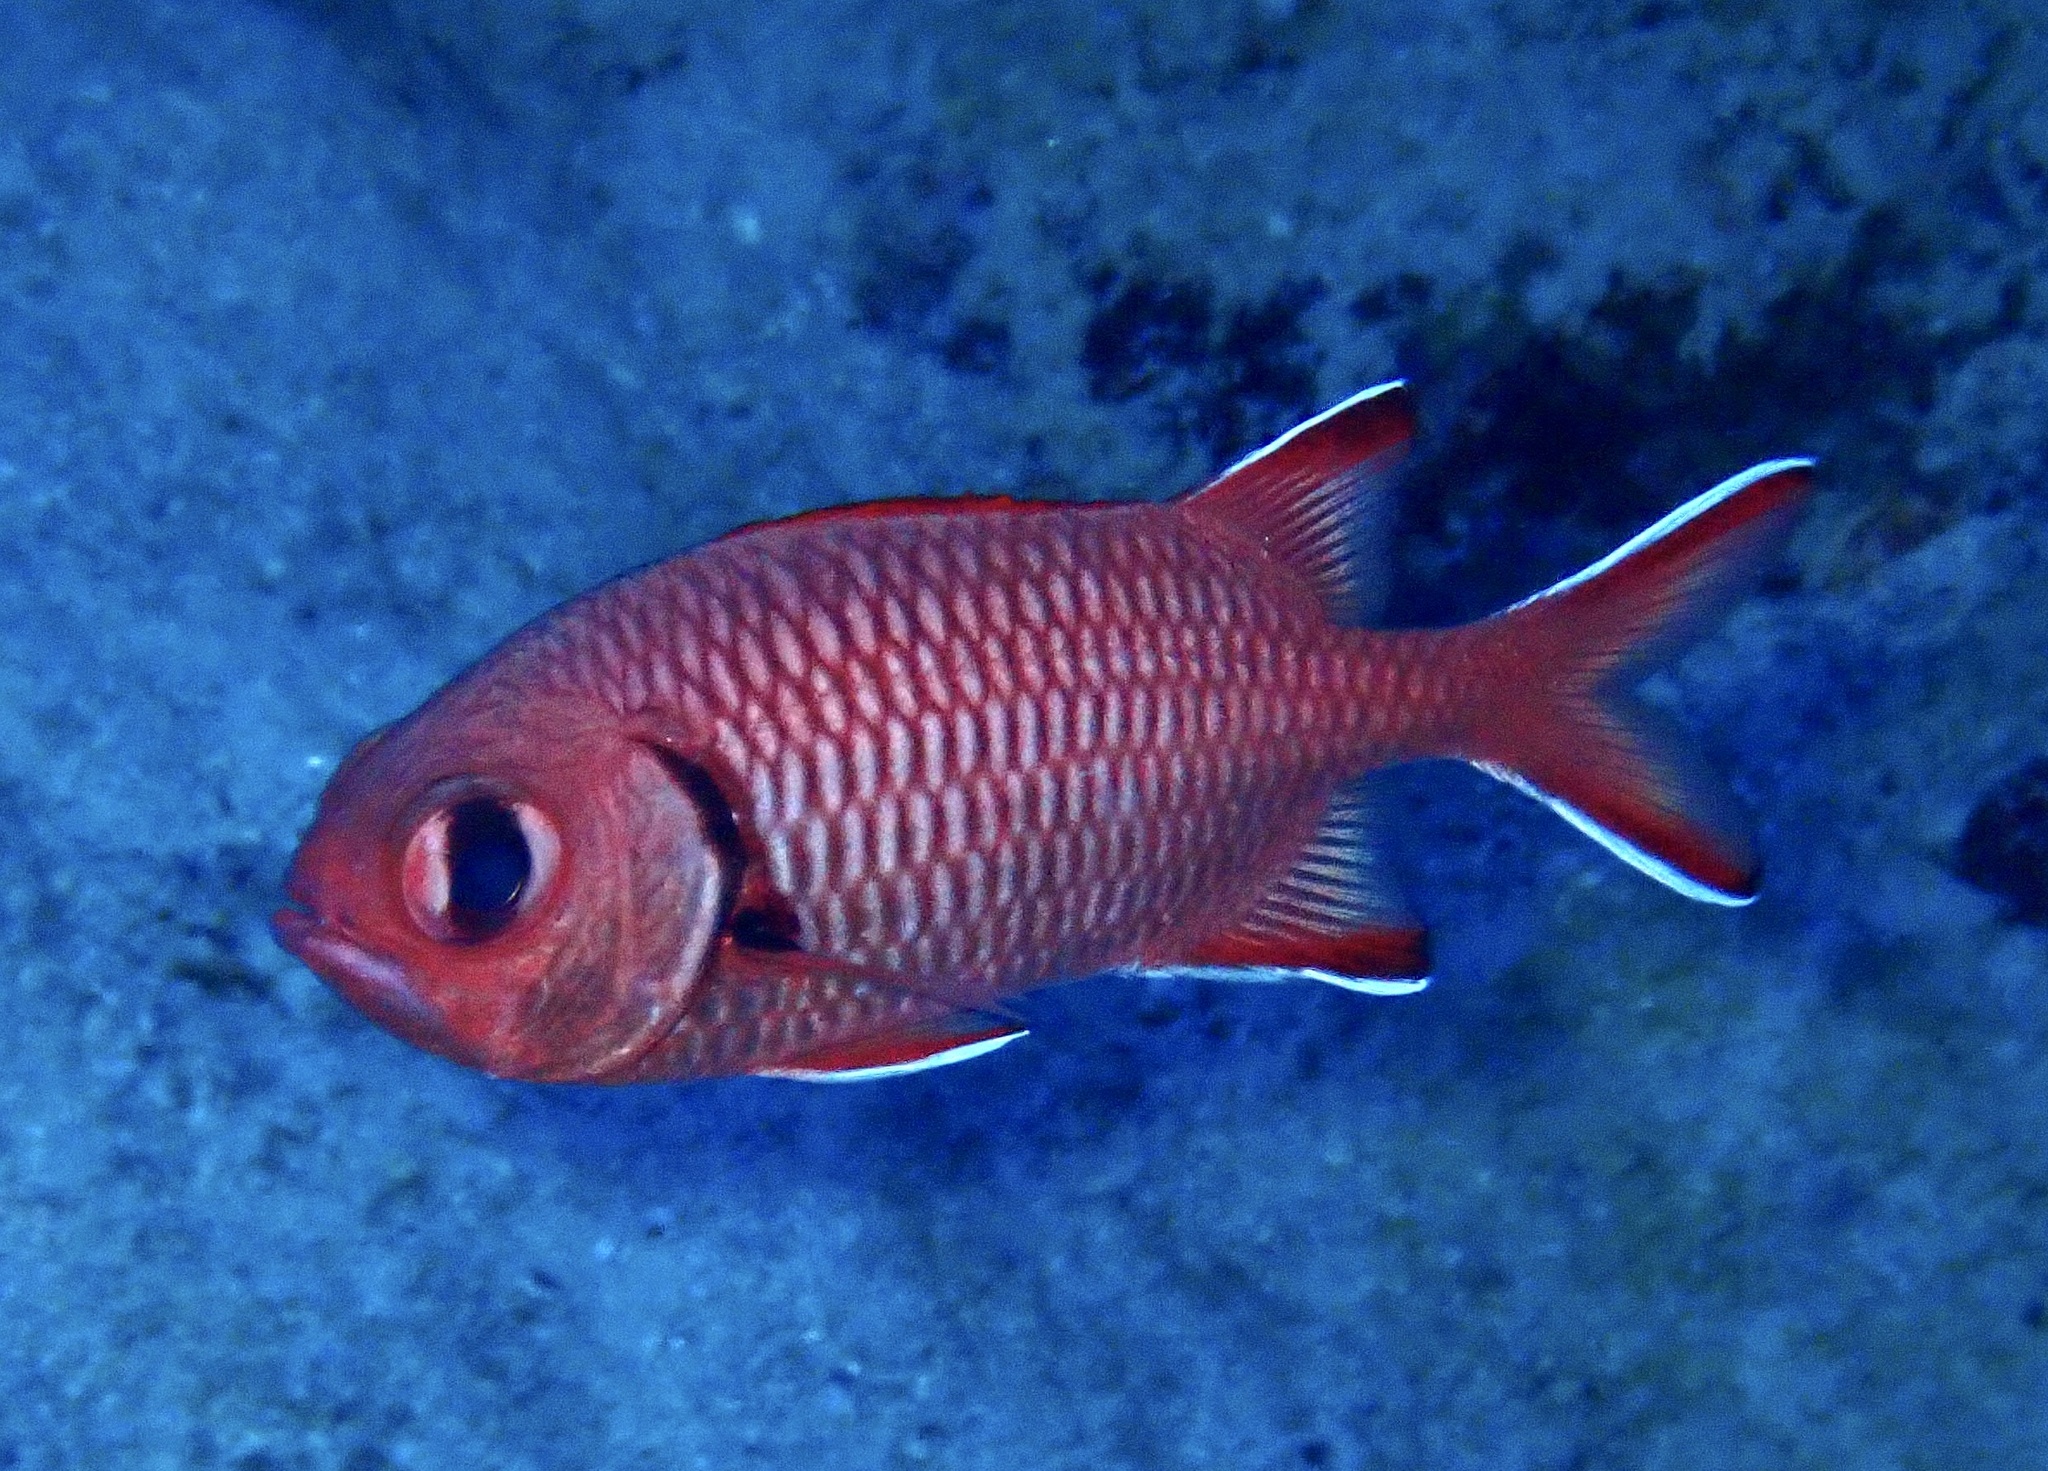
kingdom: Animalia
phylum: Chordata
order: Beryciformes
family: Holocentridae
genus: Myripristis
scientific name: Myripristis murdjan
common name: Big-eye soldierfish
